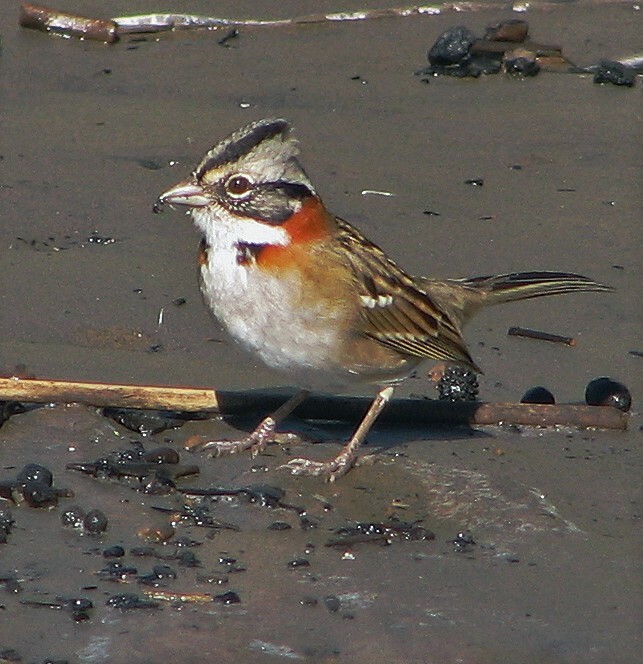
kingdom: Animalia
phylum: Chordata
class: Aves
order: Passeriformes
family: Passerellidae
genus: Zonotrichia
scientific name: Zonotrichia capensis
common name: Rufous-collared sparrow
